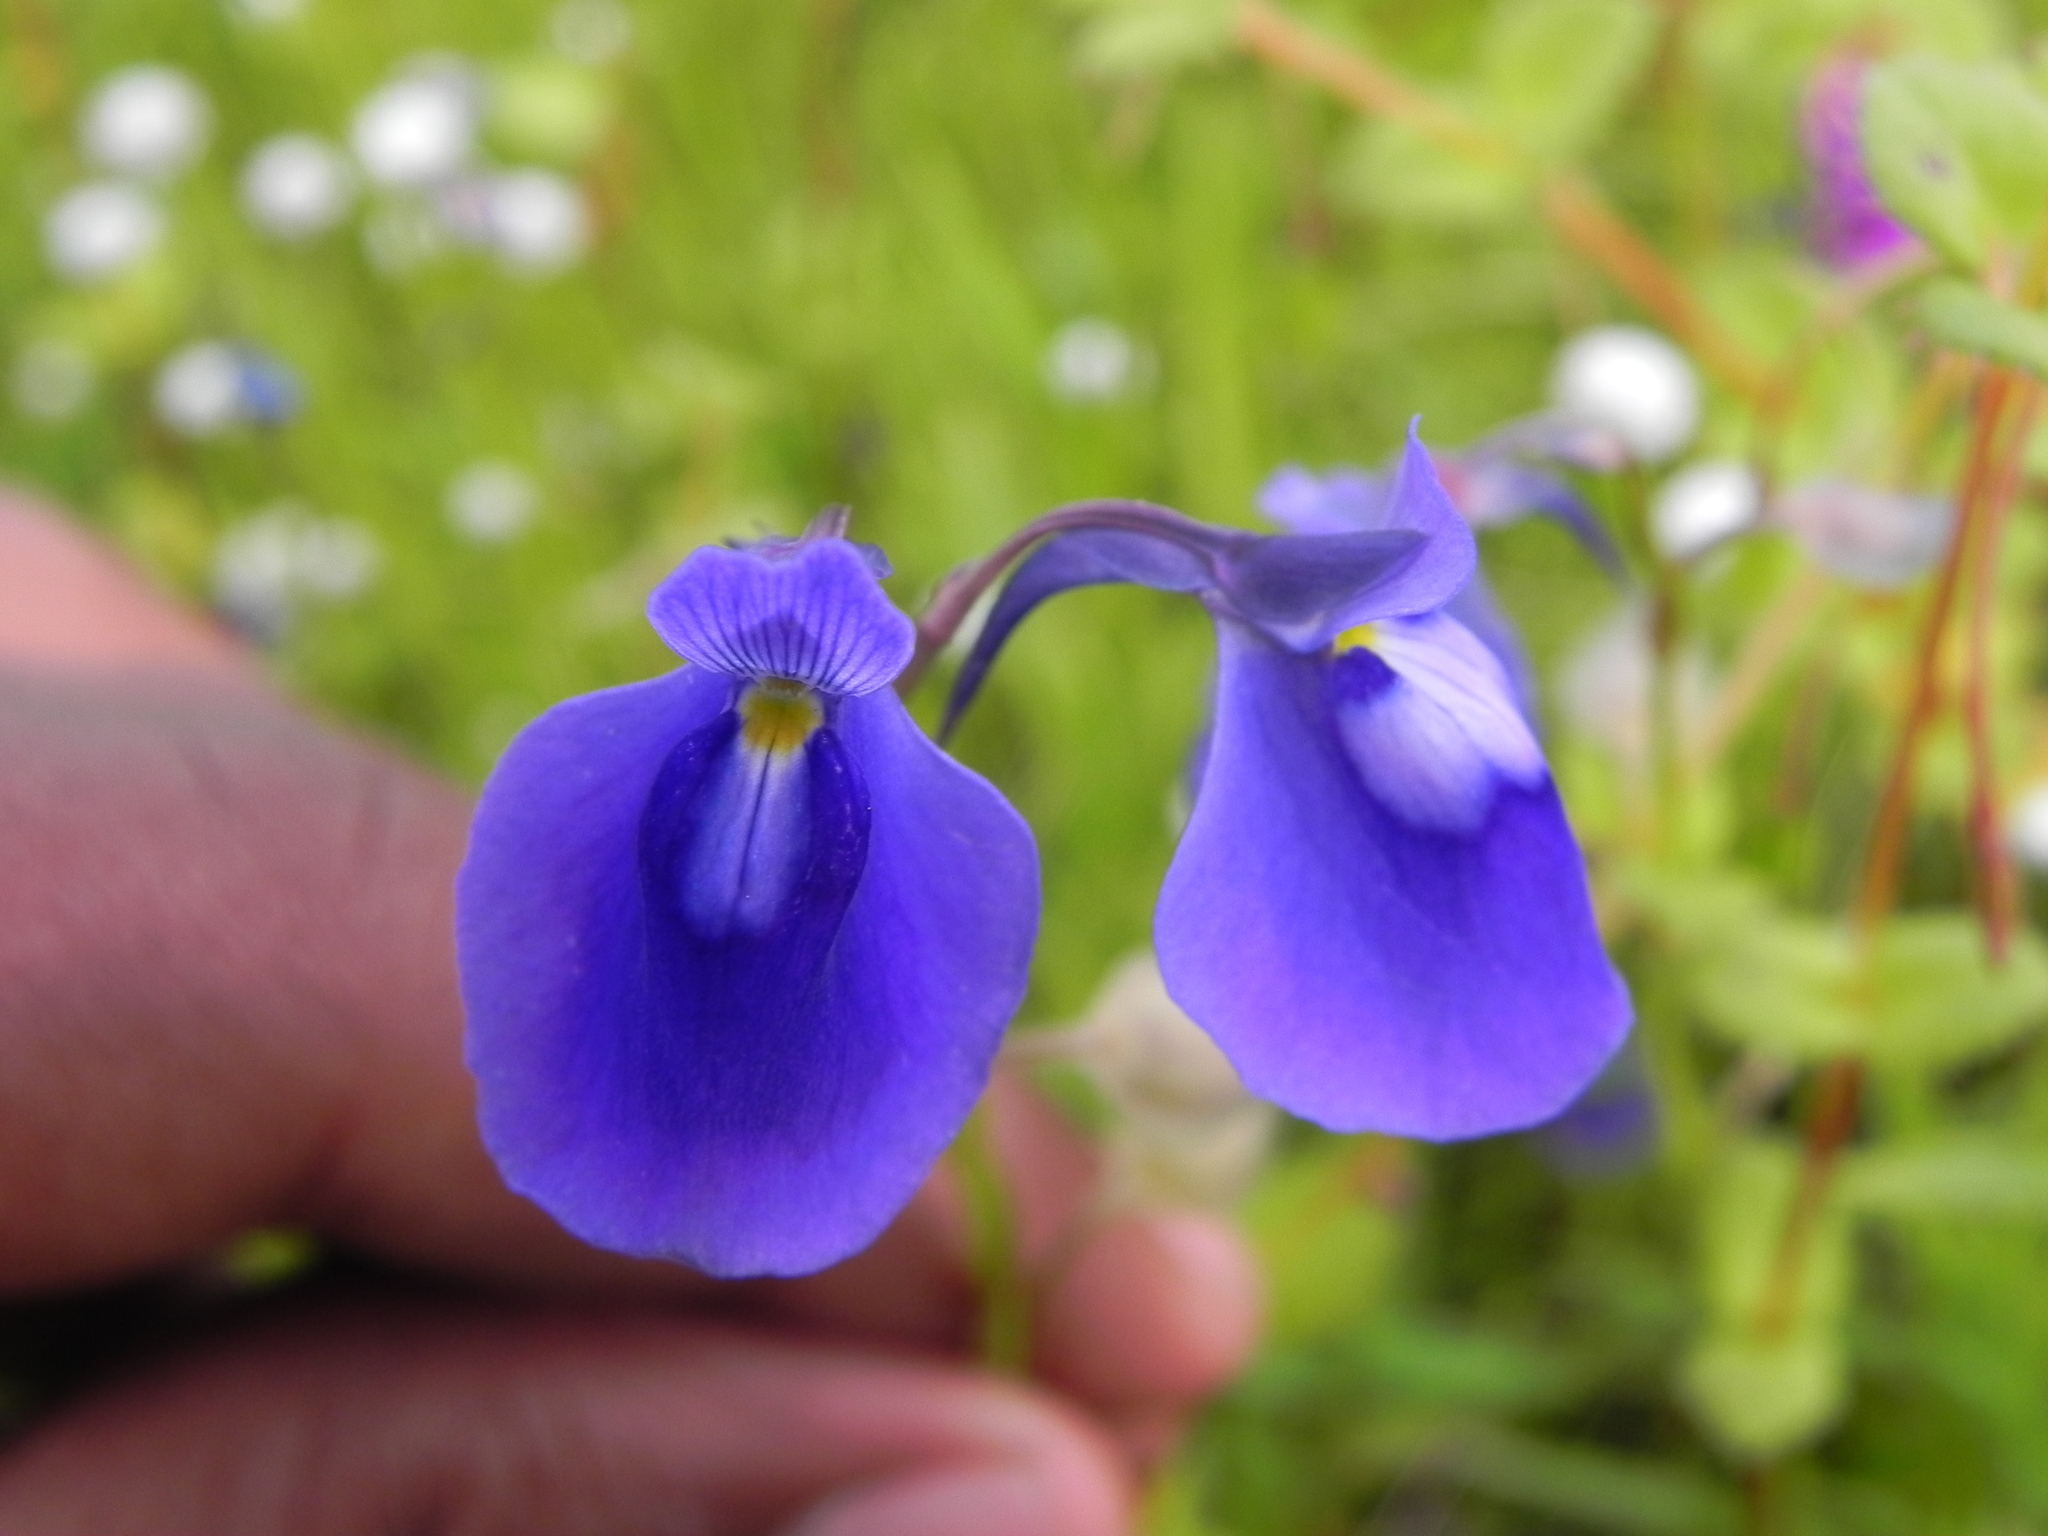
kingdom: Plantae
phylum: Tracheophyta
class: Magnoliopsida
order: Lamiales
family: Lentibulariaceae
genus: Utricularia
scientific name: Utricularia arcuata
